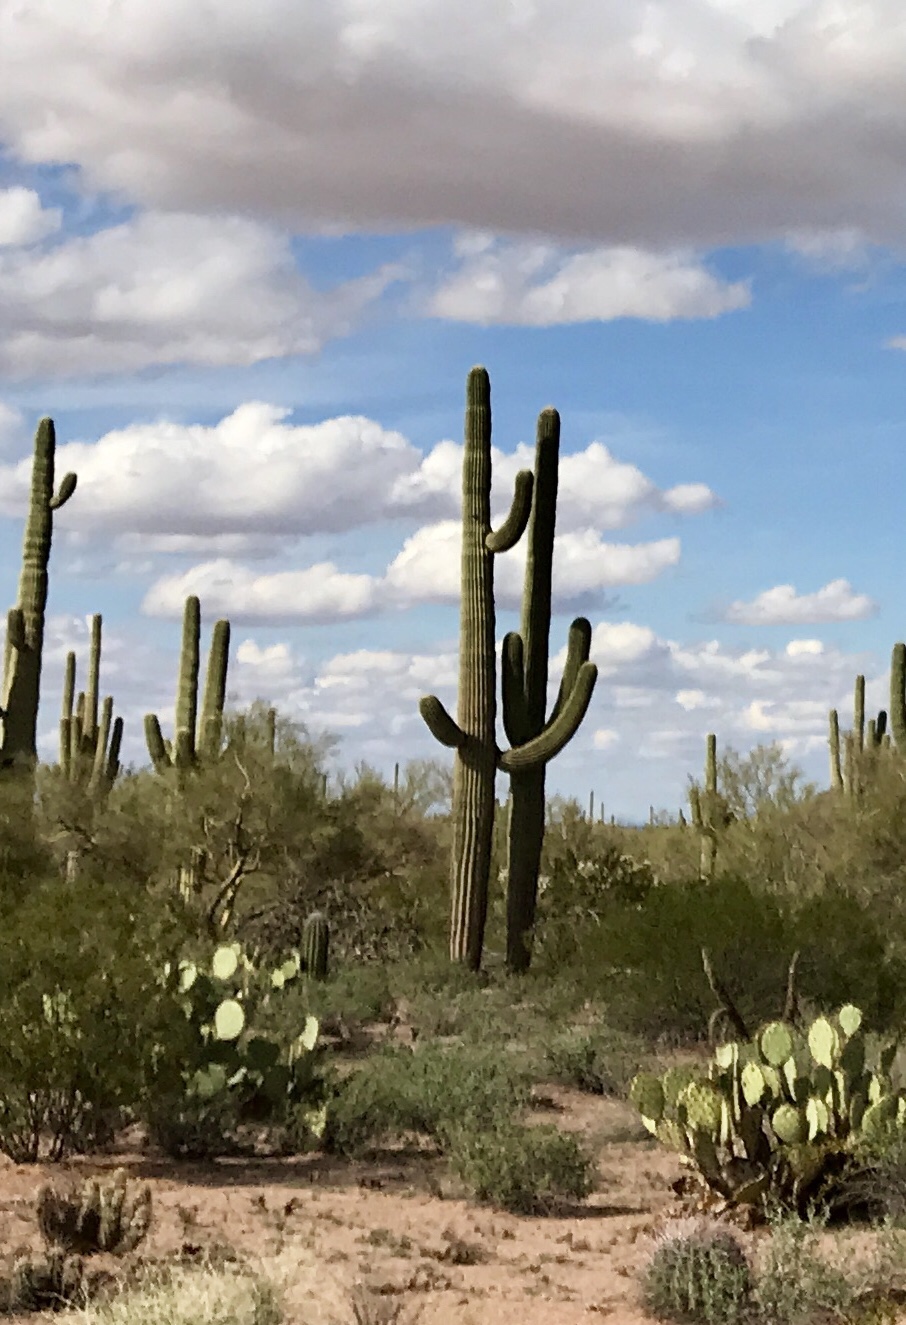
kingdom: Plantae
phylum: Tracheophyta
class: Magnoliopsida
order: Caryophyllales
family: Cactaceae
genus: Carnegiea
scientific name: Carnegiea gigantea
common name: Saguaro
